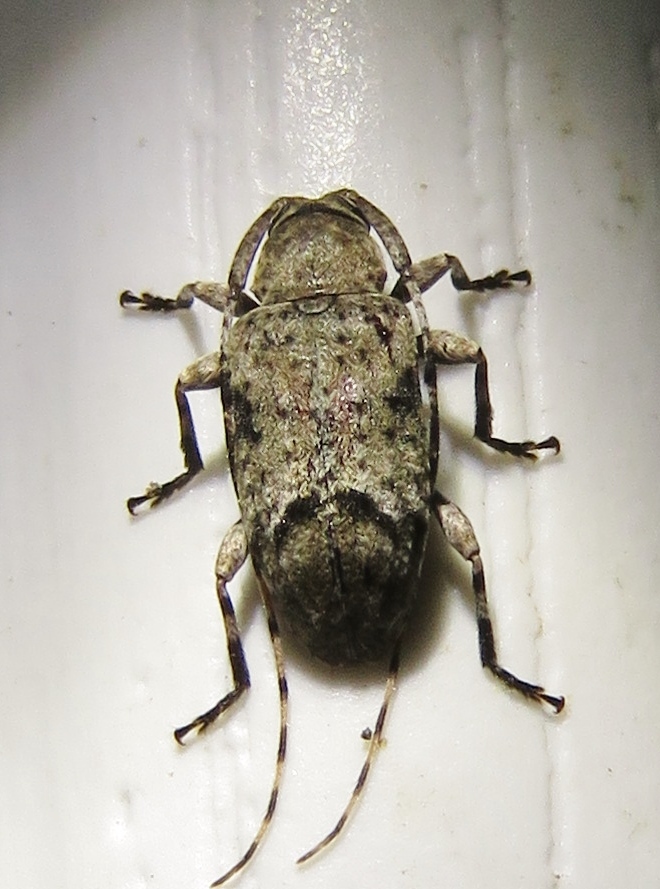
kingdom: Animalia
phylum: Arthropoda
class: Insecta
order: Coleoptera
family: Cerambycidae
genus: Sternidius
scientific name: Sternidius mimeticus
